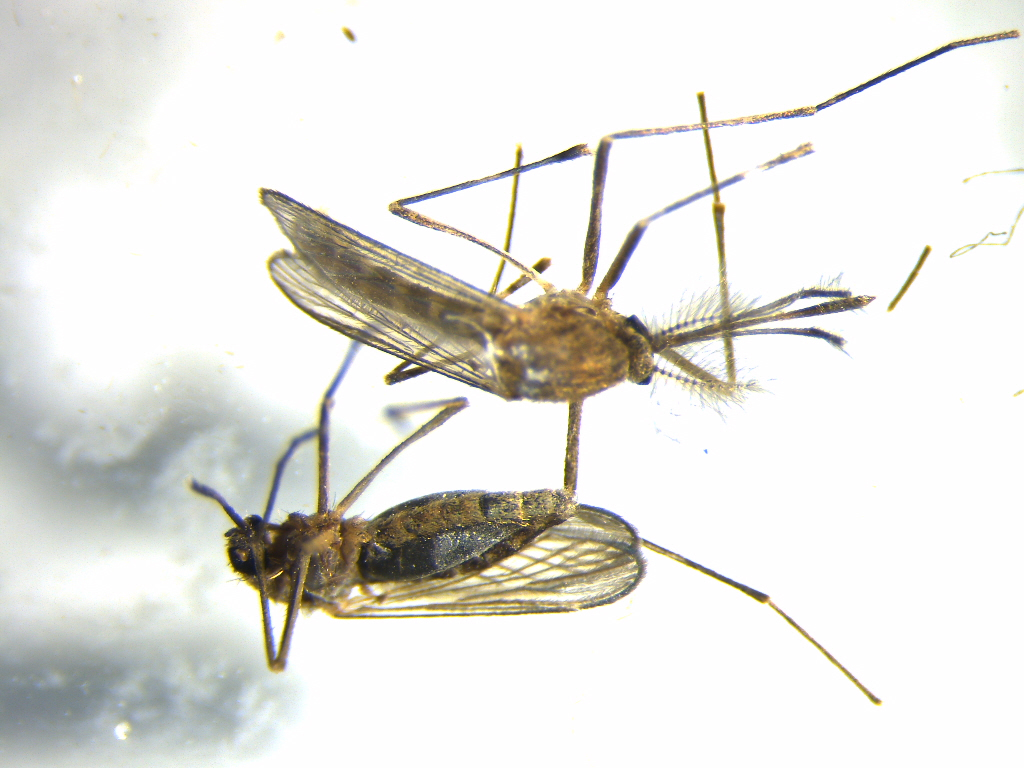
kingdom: Animalia
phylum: Arthropoda
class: Insecta
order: Diptera
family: Culicidae
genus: Culex
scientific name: Culex quinquefasciatus
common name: Southern house mosquito
